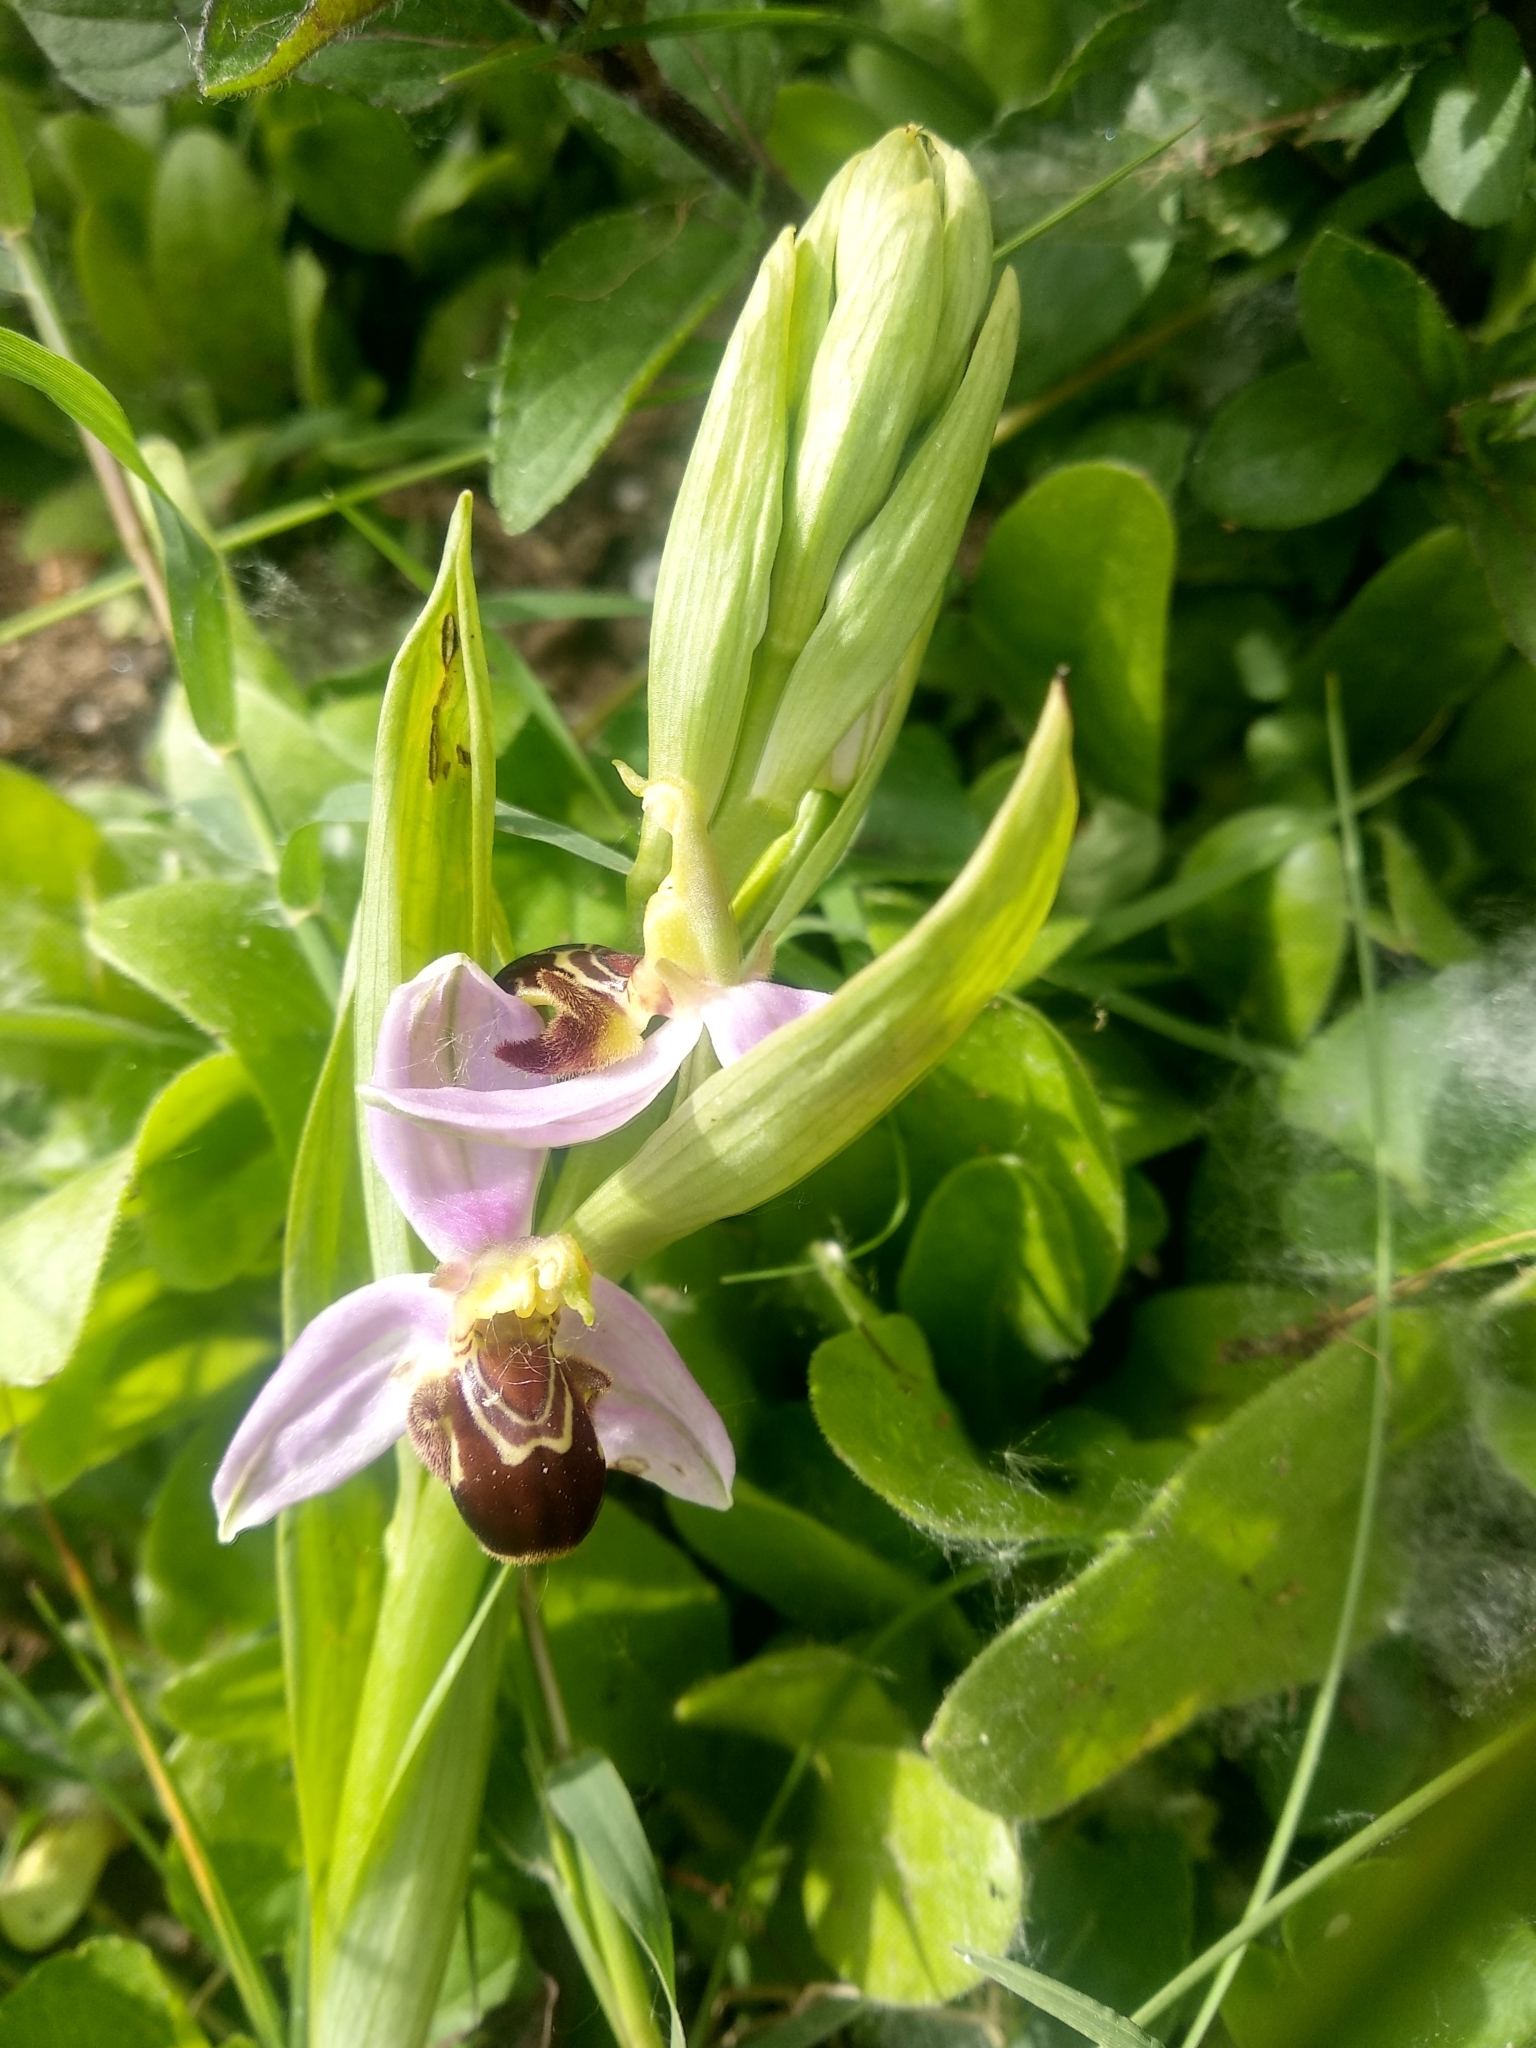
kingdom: Plantae
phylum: Tracheophyta
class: Liliopsida
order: Asparagales
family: Orchidaceae
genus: Ophrys
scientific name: Ophrys apifera
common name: Bee orchid
